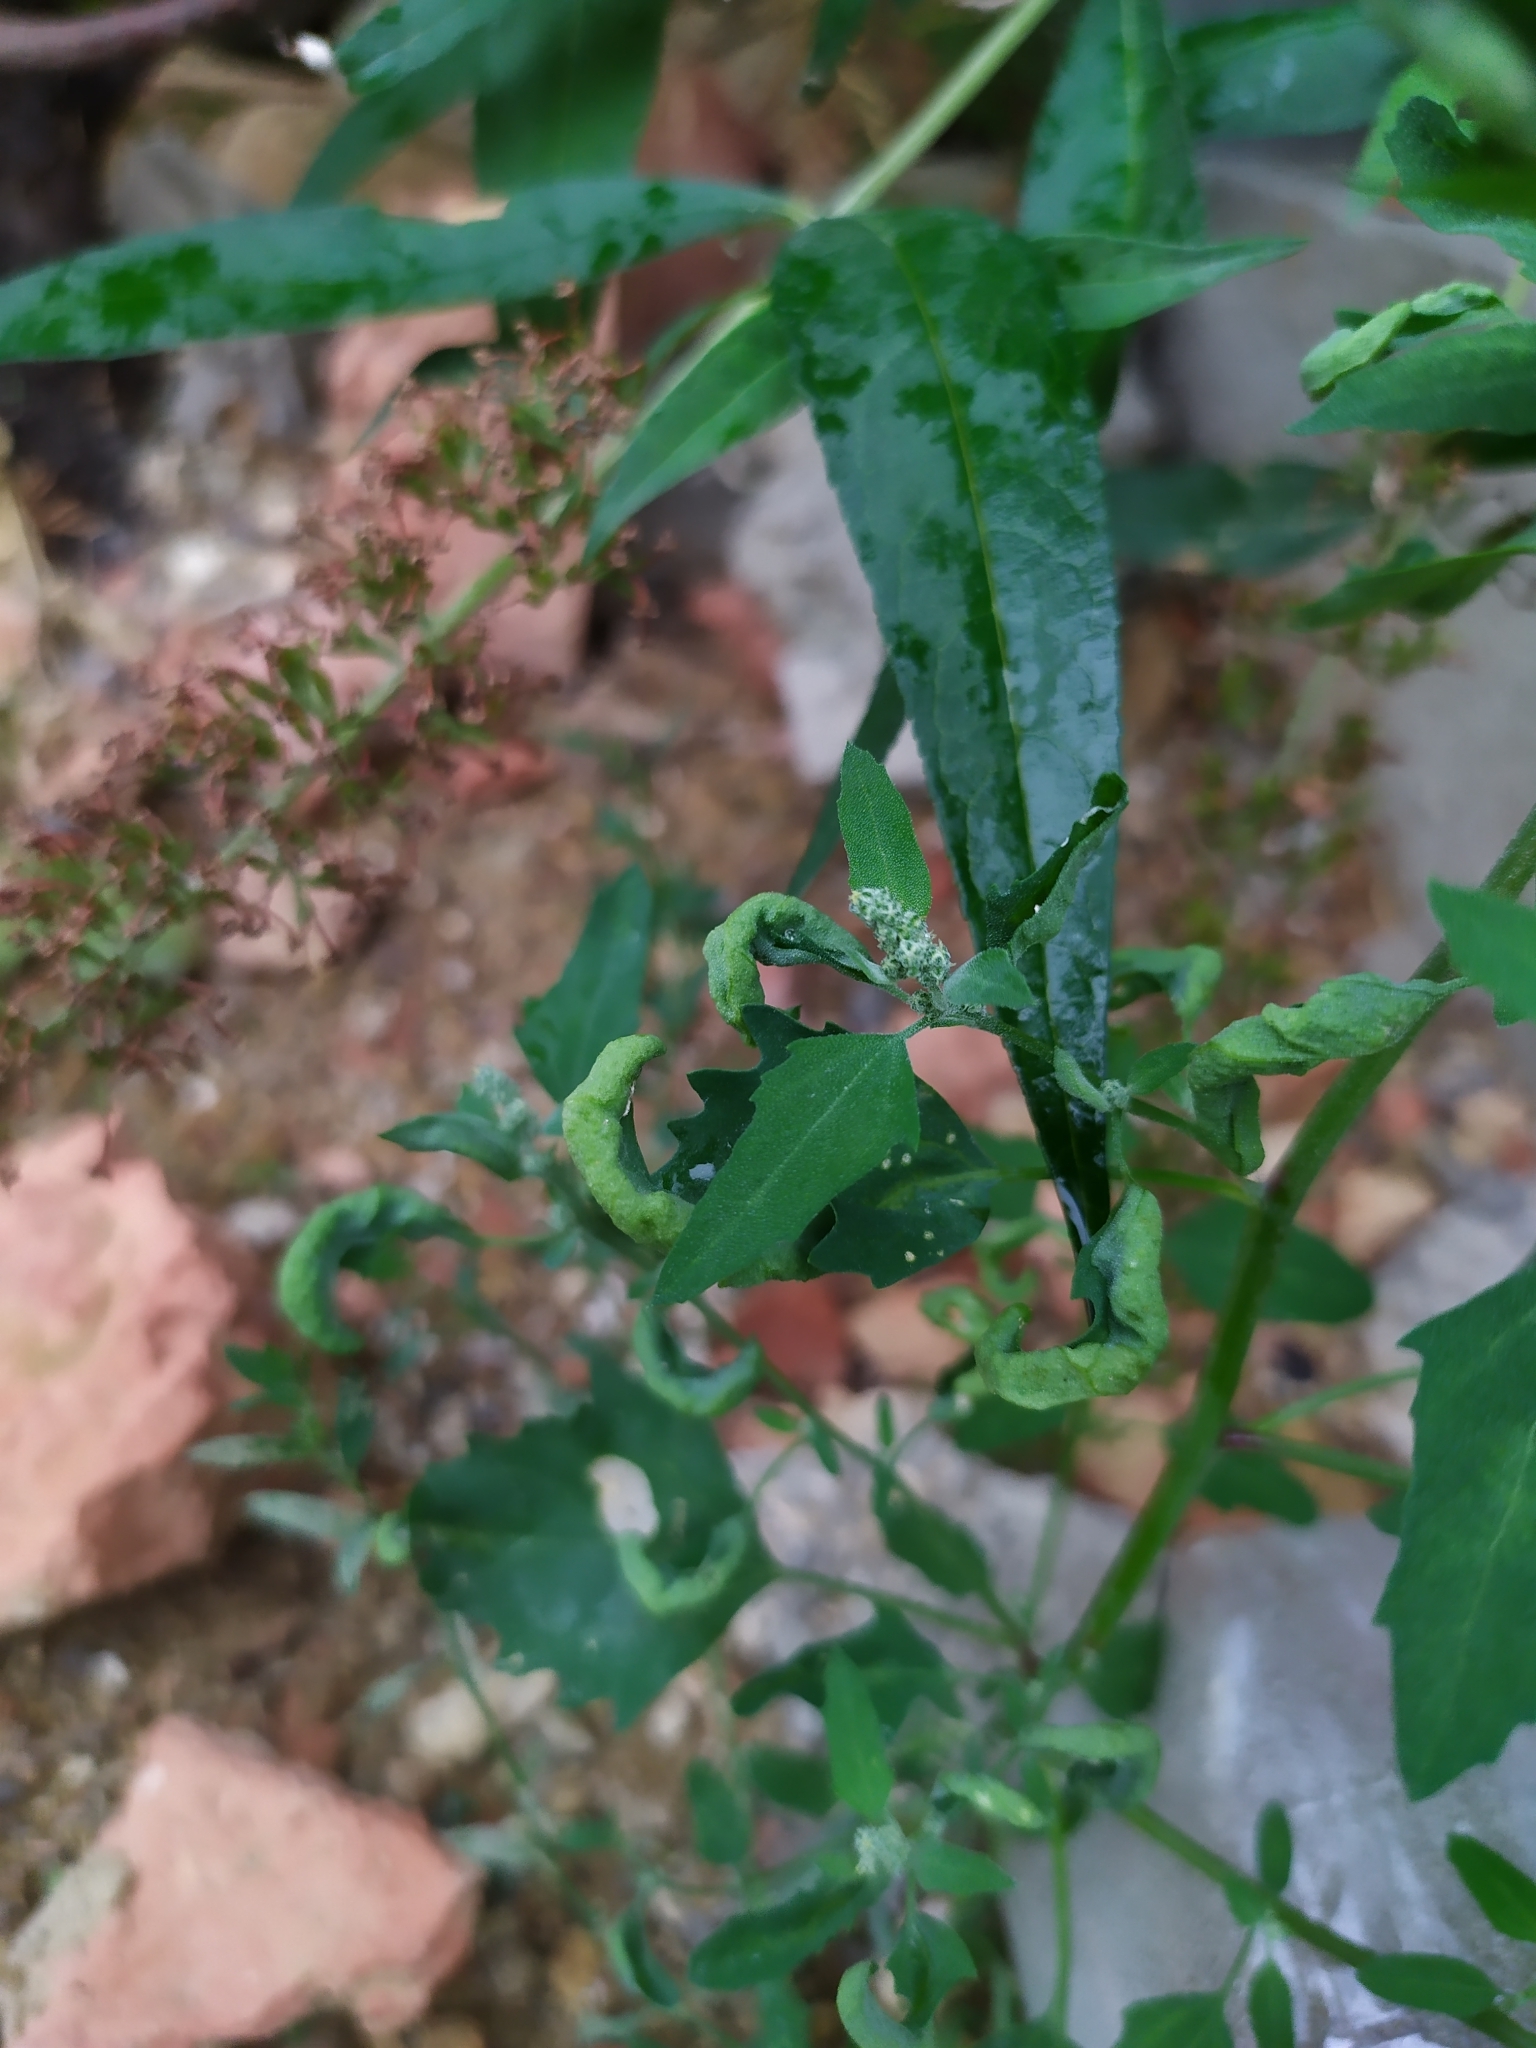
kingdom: Animalia
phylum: Arthropoda
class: Insecta
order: Hemiptera
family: Aphididae
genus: Hayhurstia
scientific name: Hayhurstia atriplicis
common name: Chenopodium aphid
